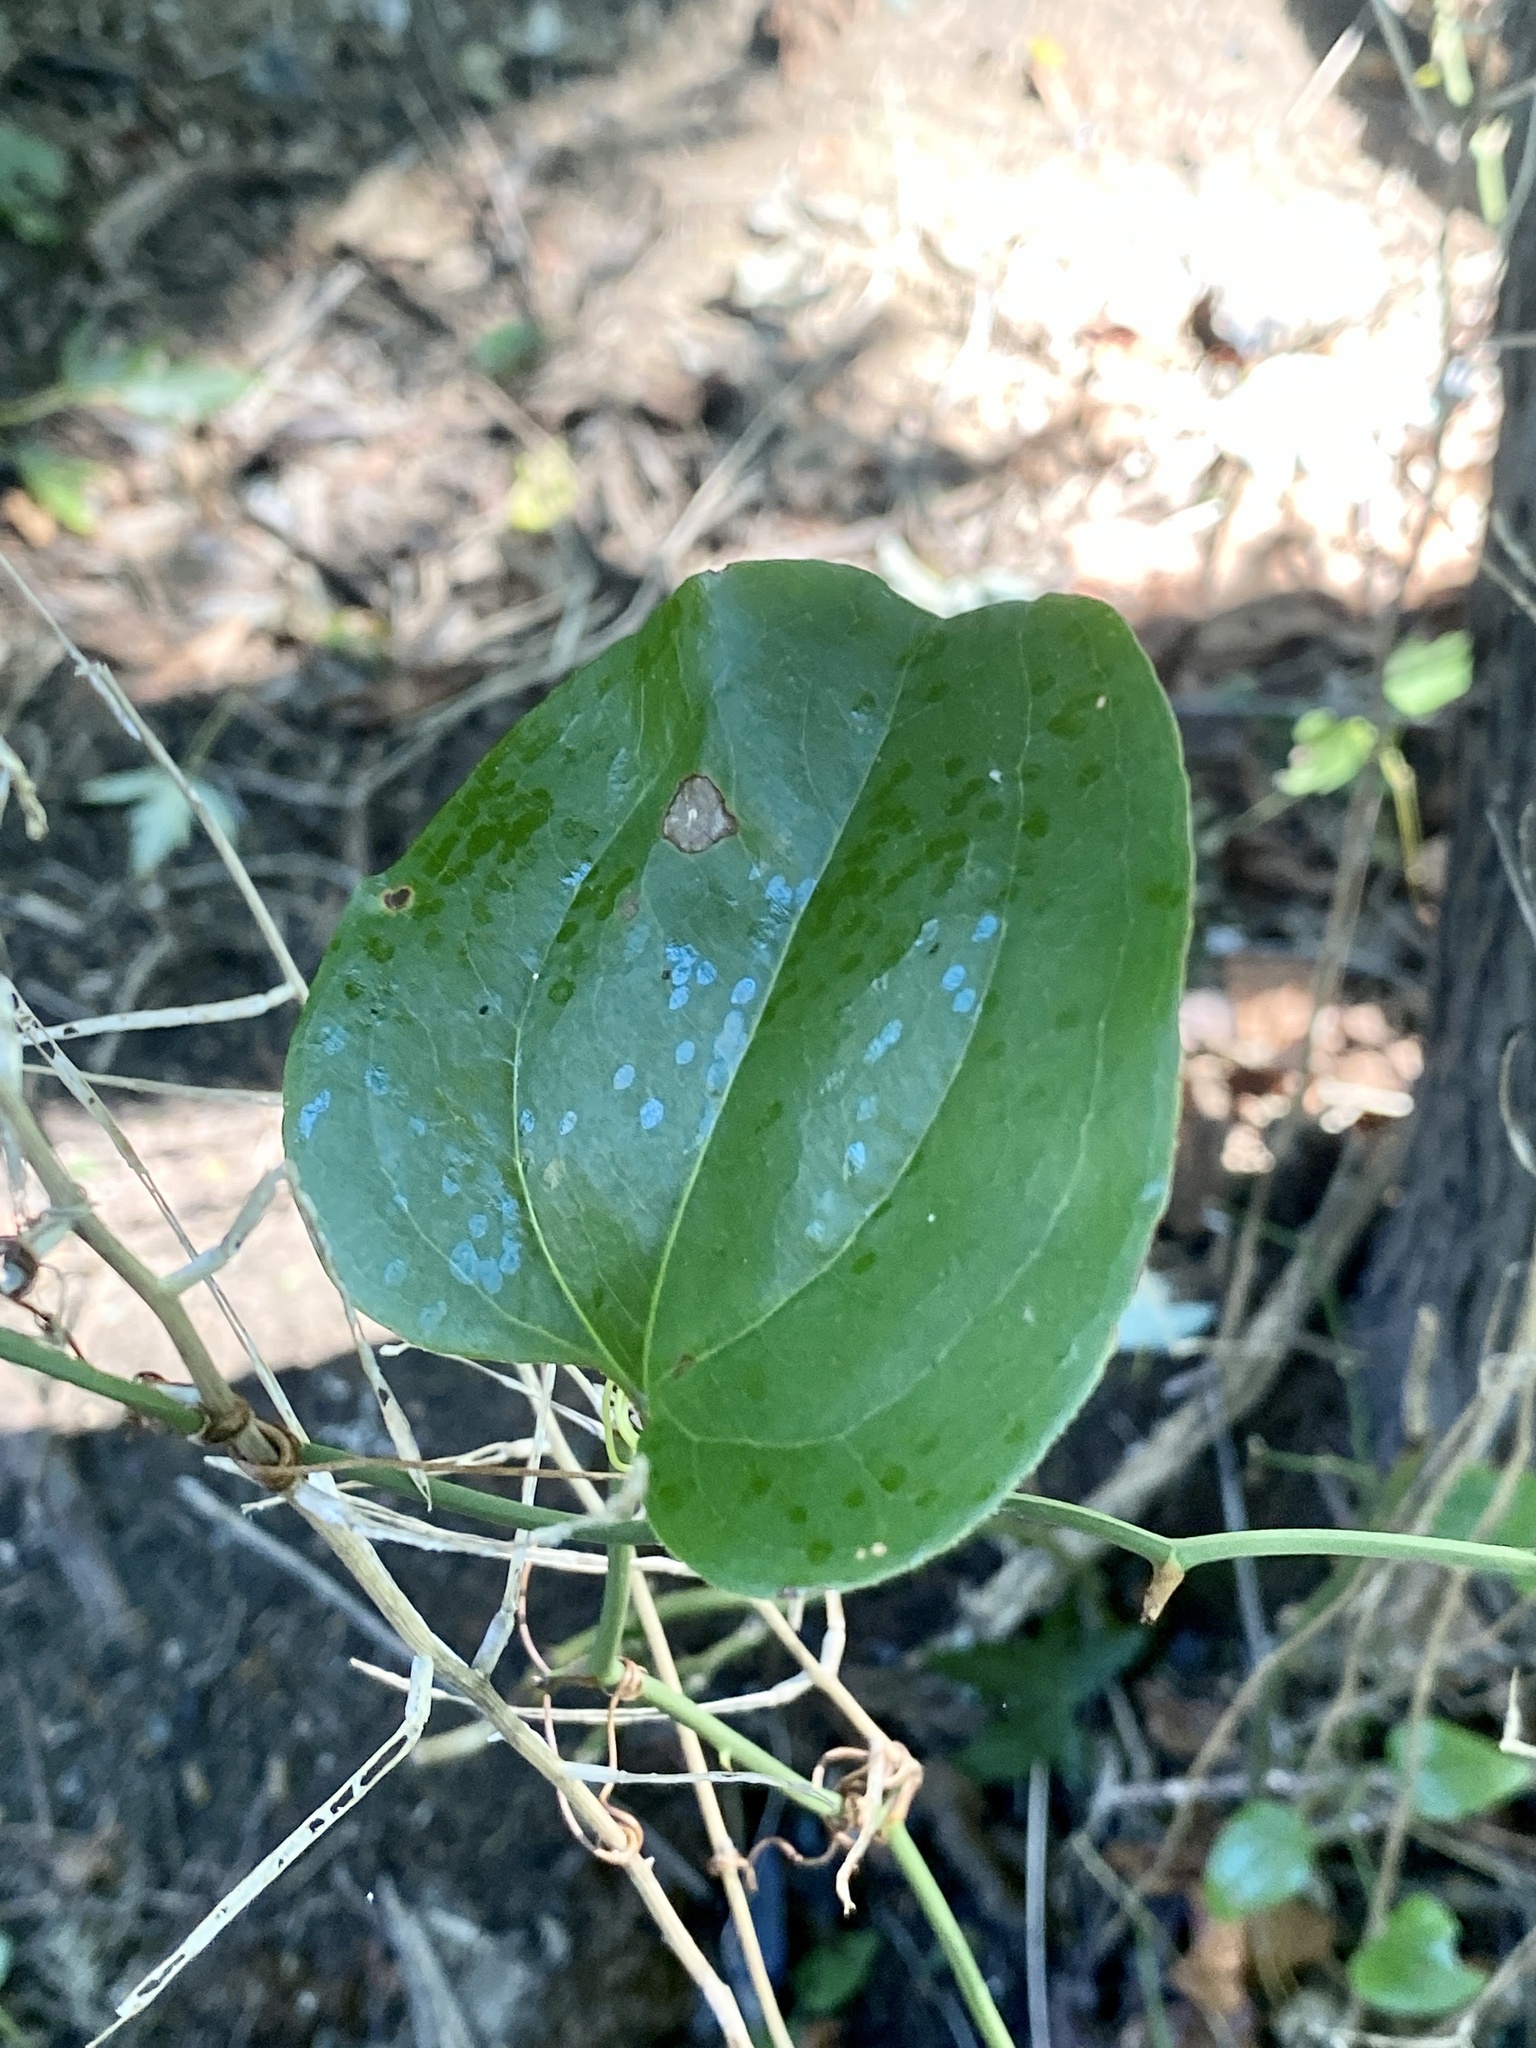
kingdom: Plantae
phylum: Tracheophyta
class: Liliopsida
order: Liliales
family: Smilacaceae
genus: Smilax
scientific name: Smilax rotundifolia
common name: Bullbriar
